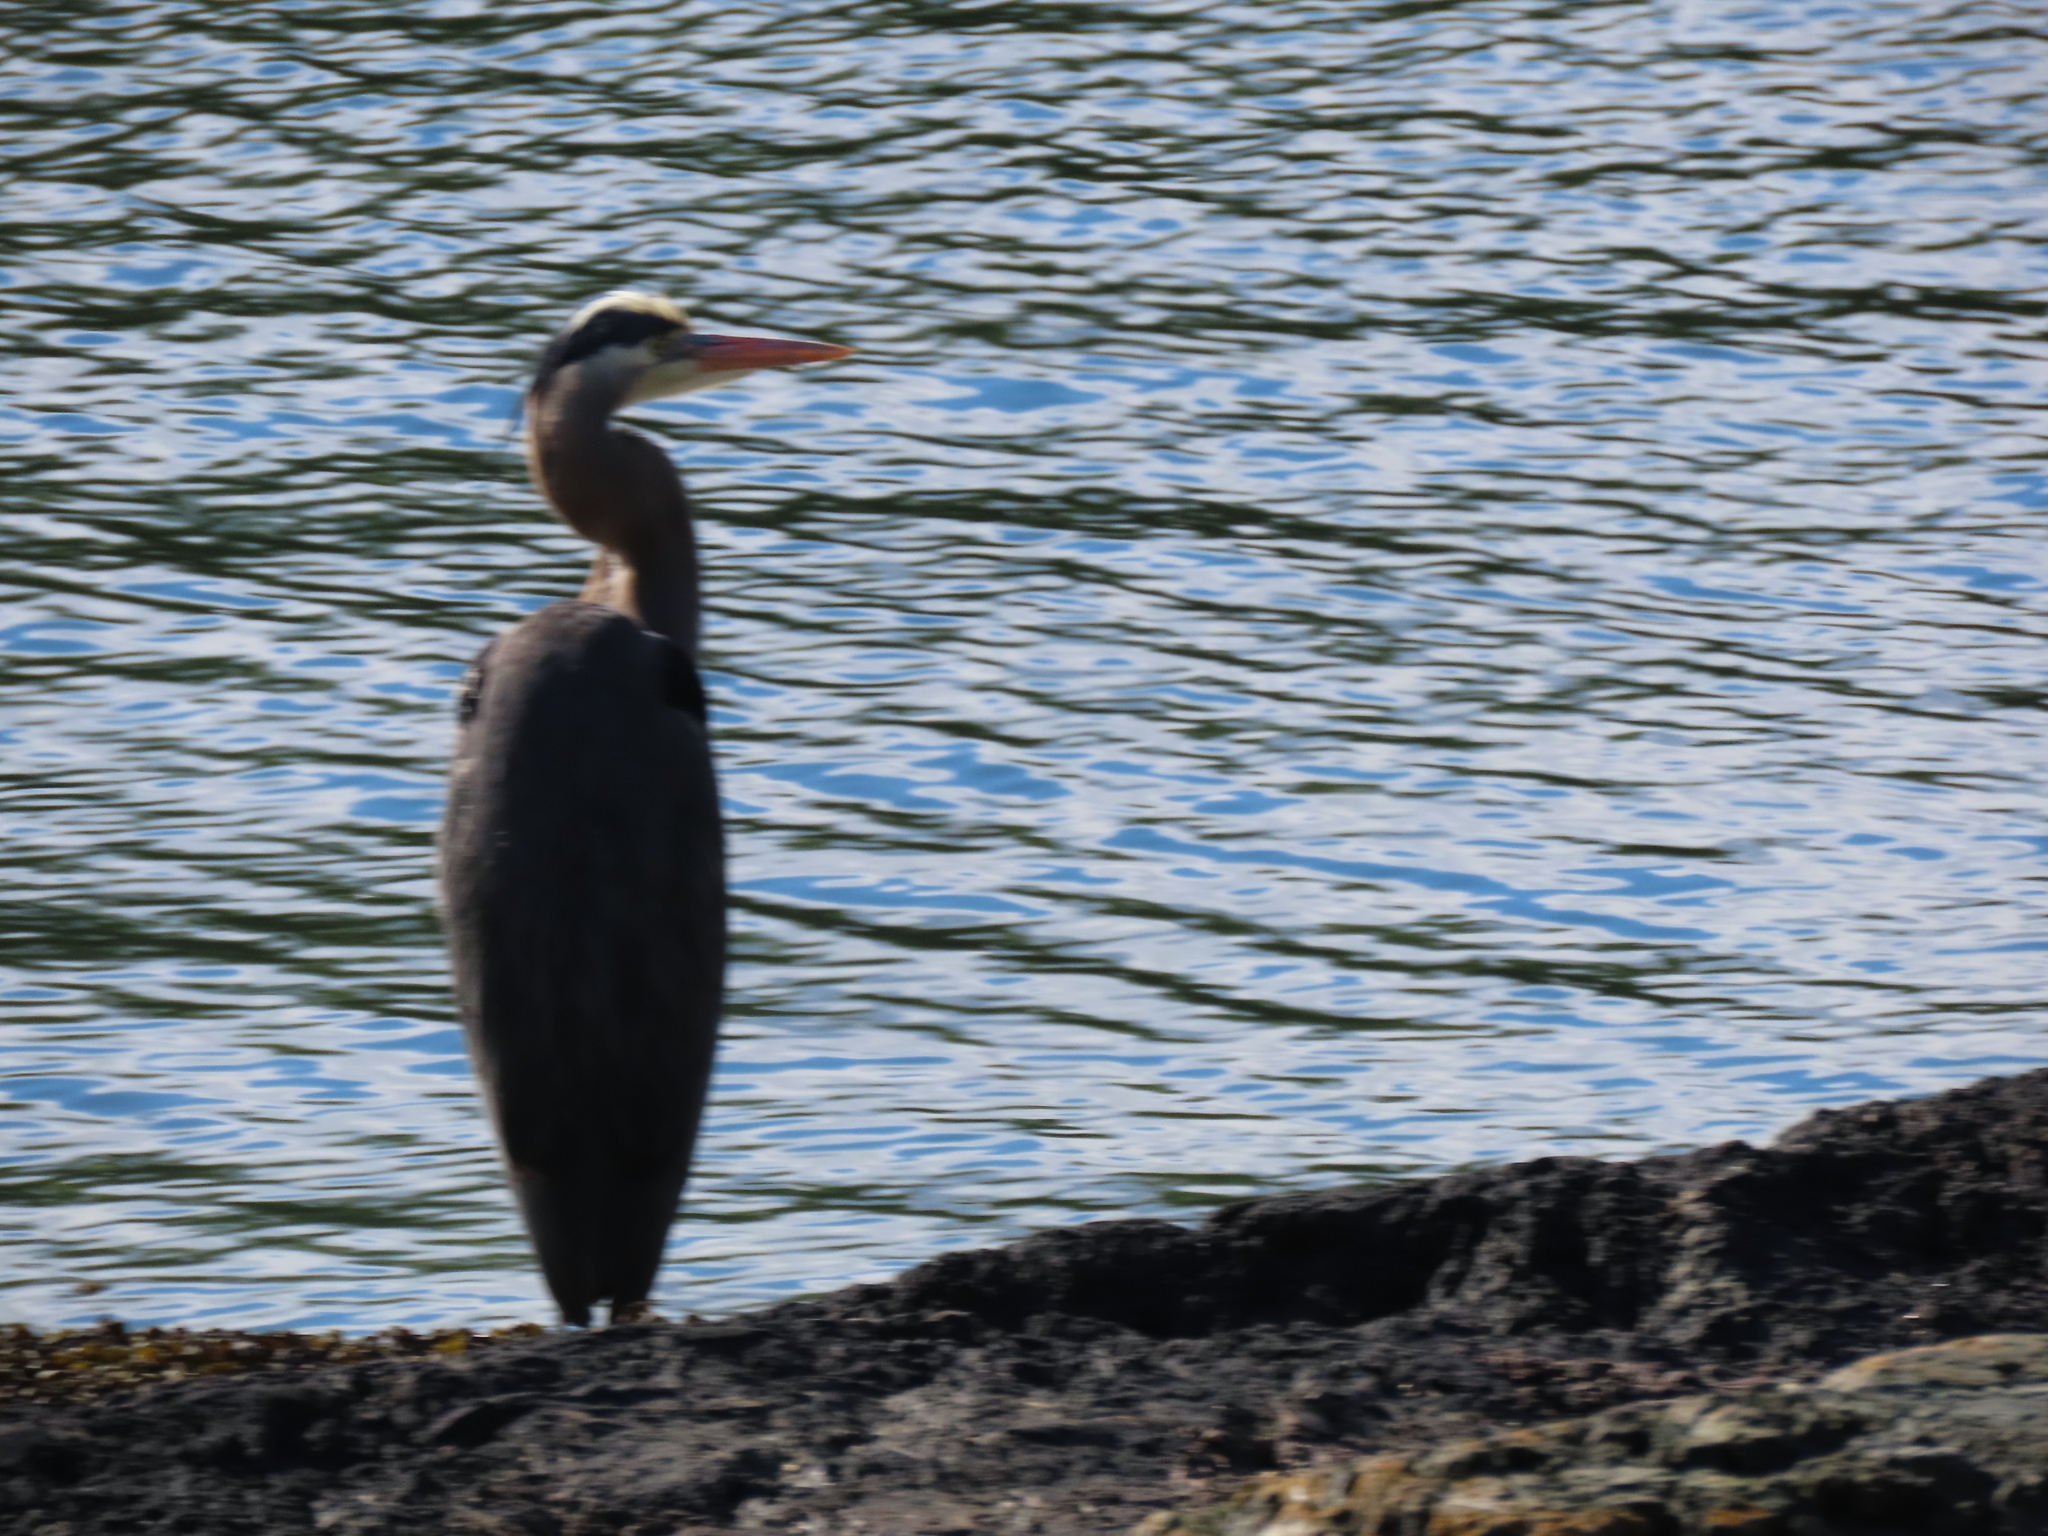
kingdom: Animalia
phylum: Chordata
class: Aves
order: Pelecaniformes
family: Ardeidae
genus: Ardea
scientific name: Ardea herodias
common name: Great blue heron
